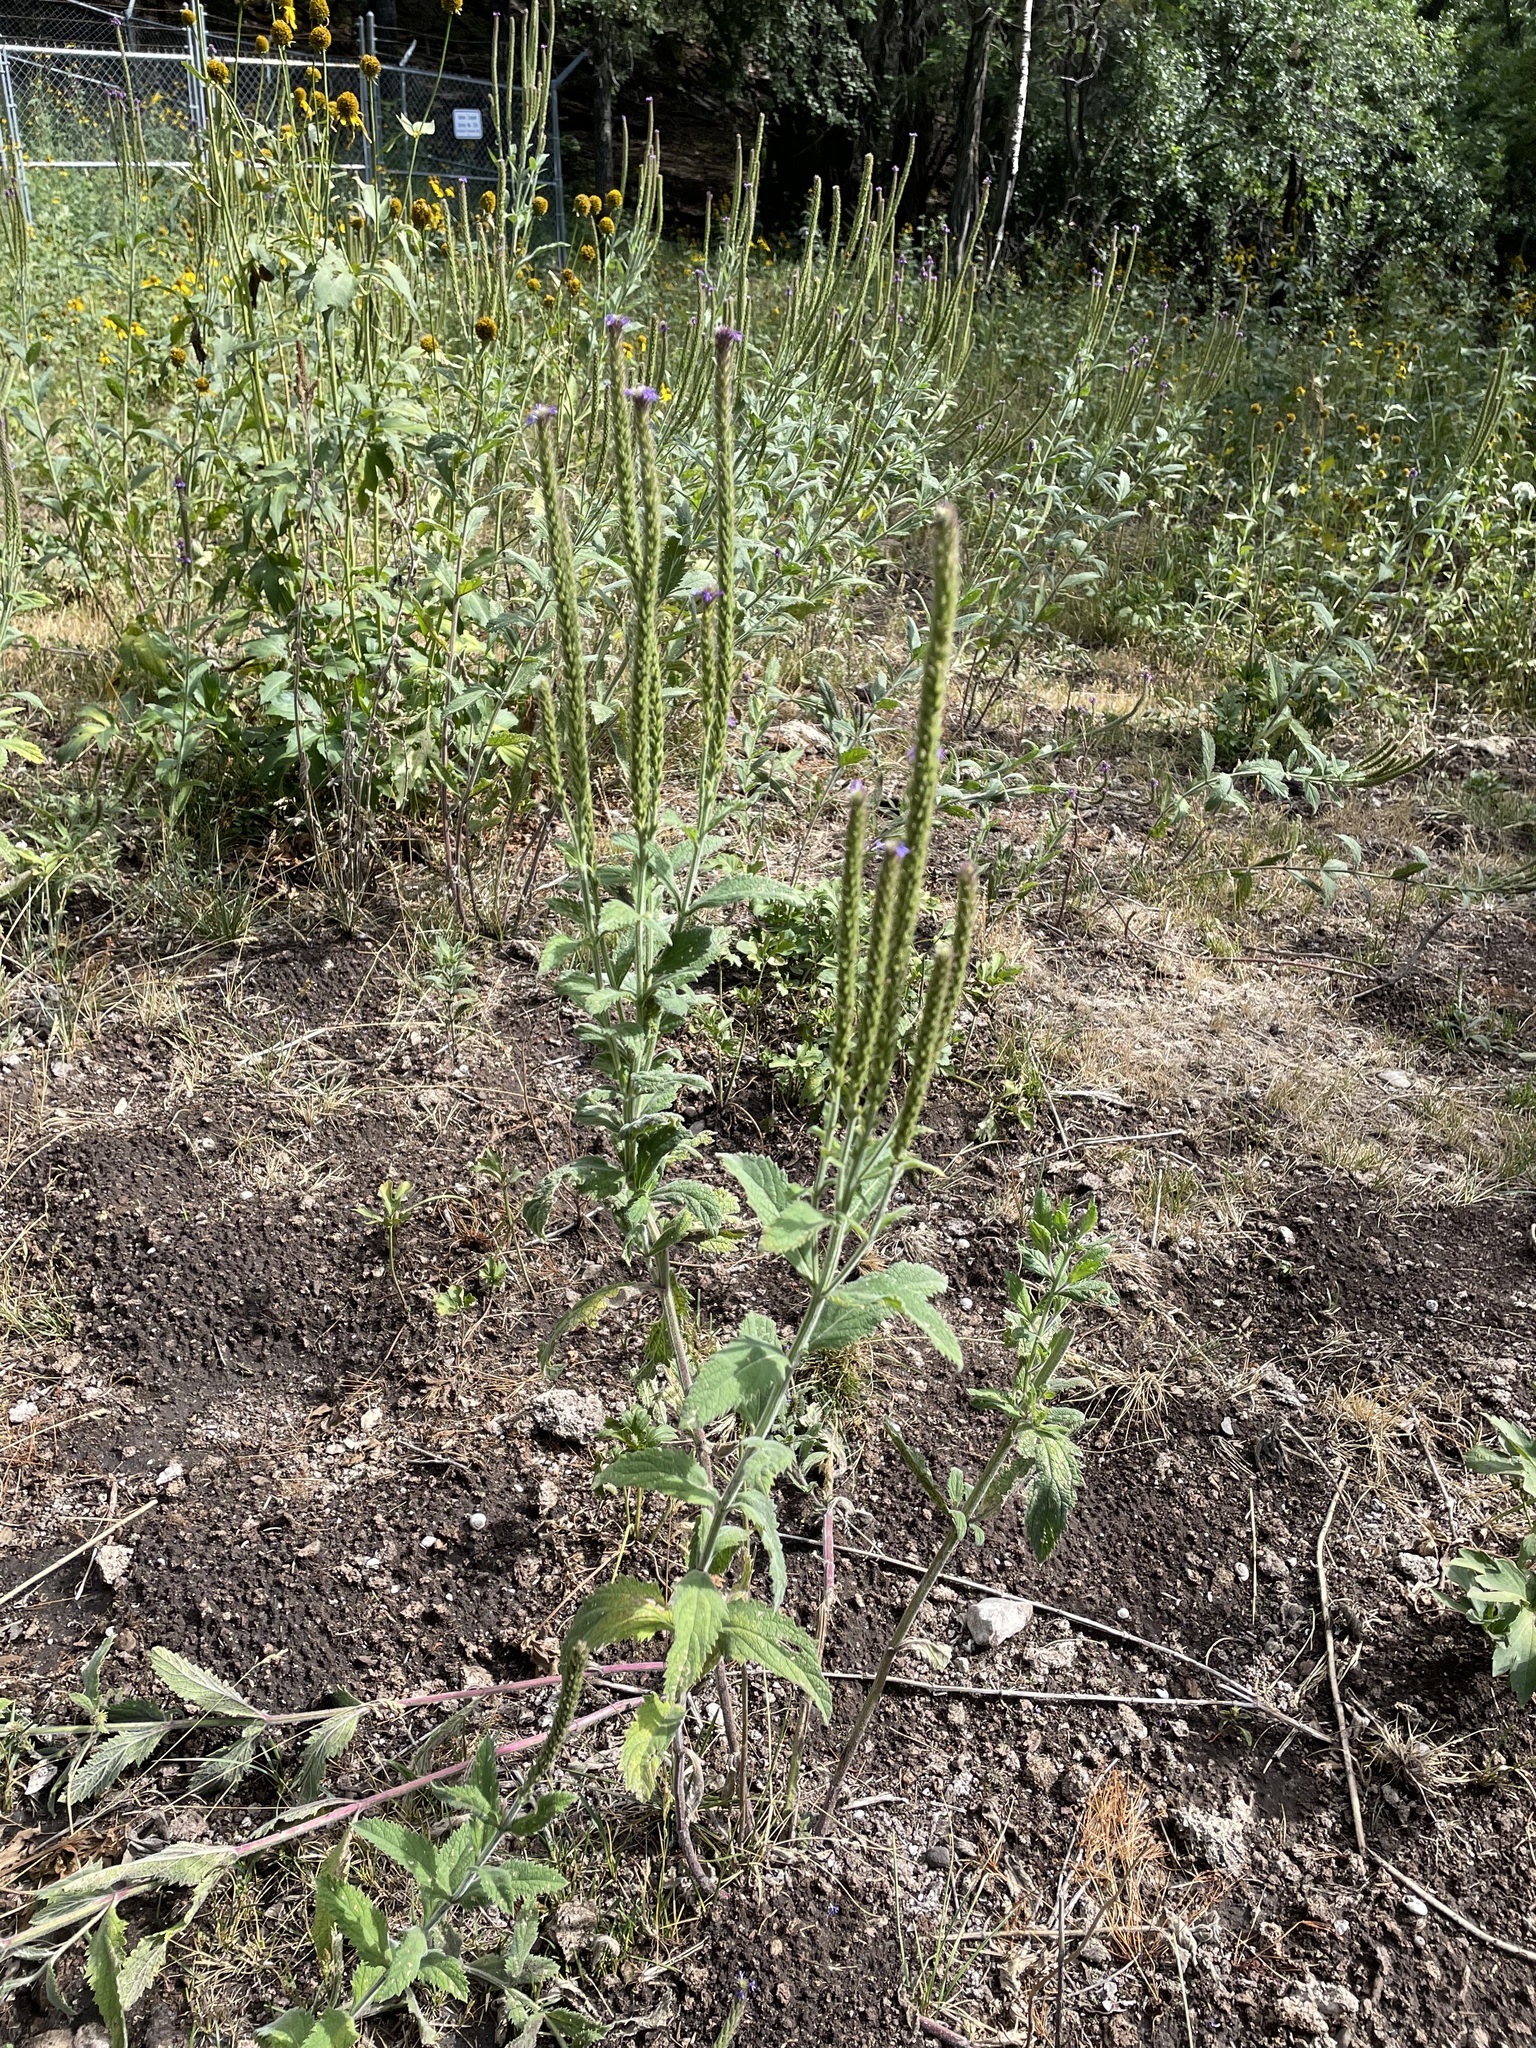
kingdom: Plantae
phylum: Tracheophyta
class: Magnoliopsida
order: Lamiales
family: Verbenaceae
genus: Verbena
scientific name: Verbena macdougalii
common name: New mexico vervain
